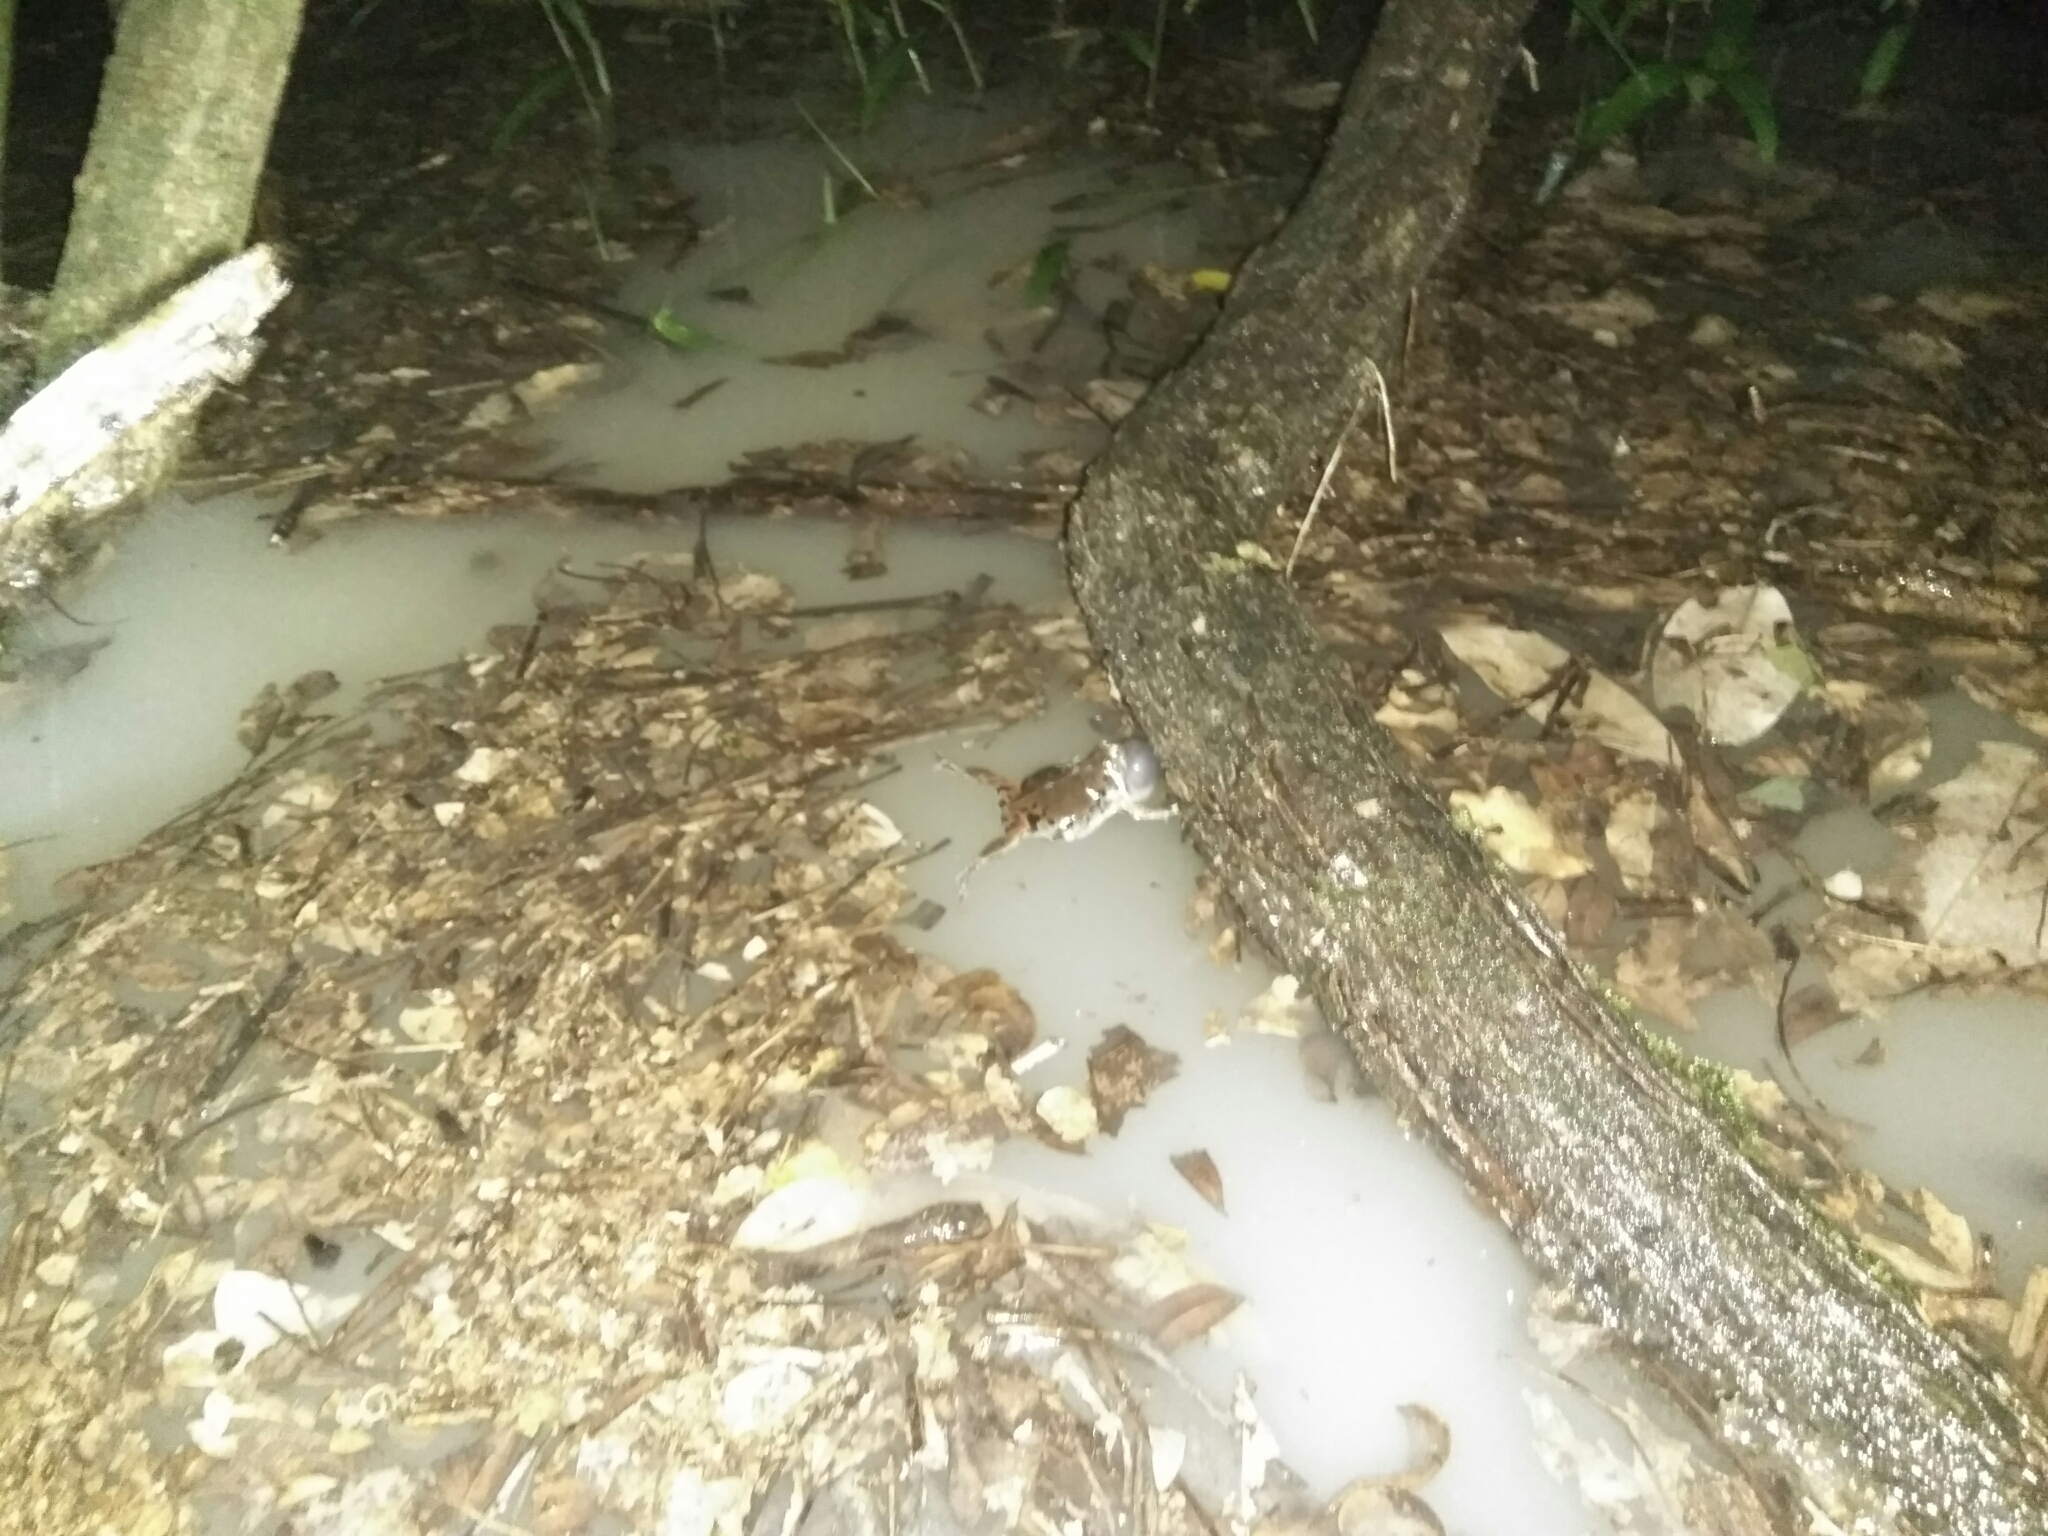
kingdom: Animalia
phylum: Chordata
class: Amphibia
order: Anura
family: Microhylidae
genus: Hypopachus
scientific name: Hypopachus variolosus
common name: Sheep frog
